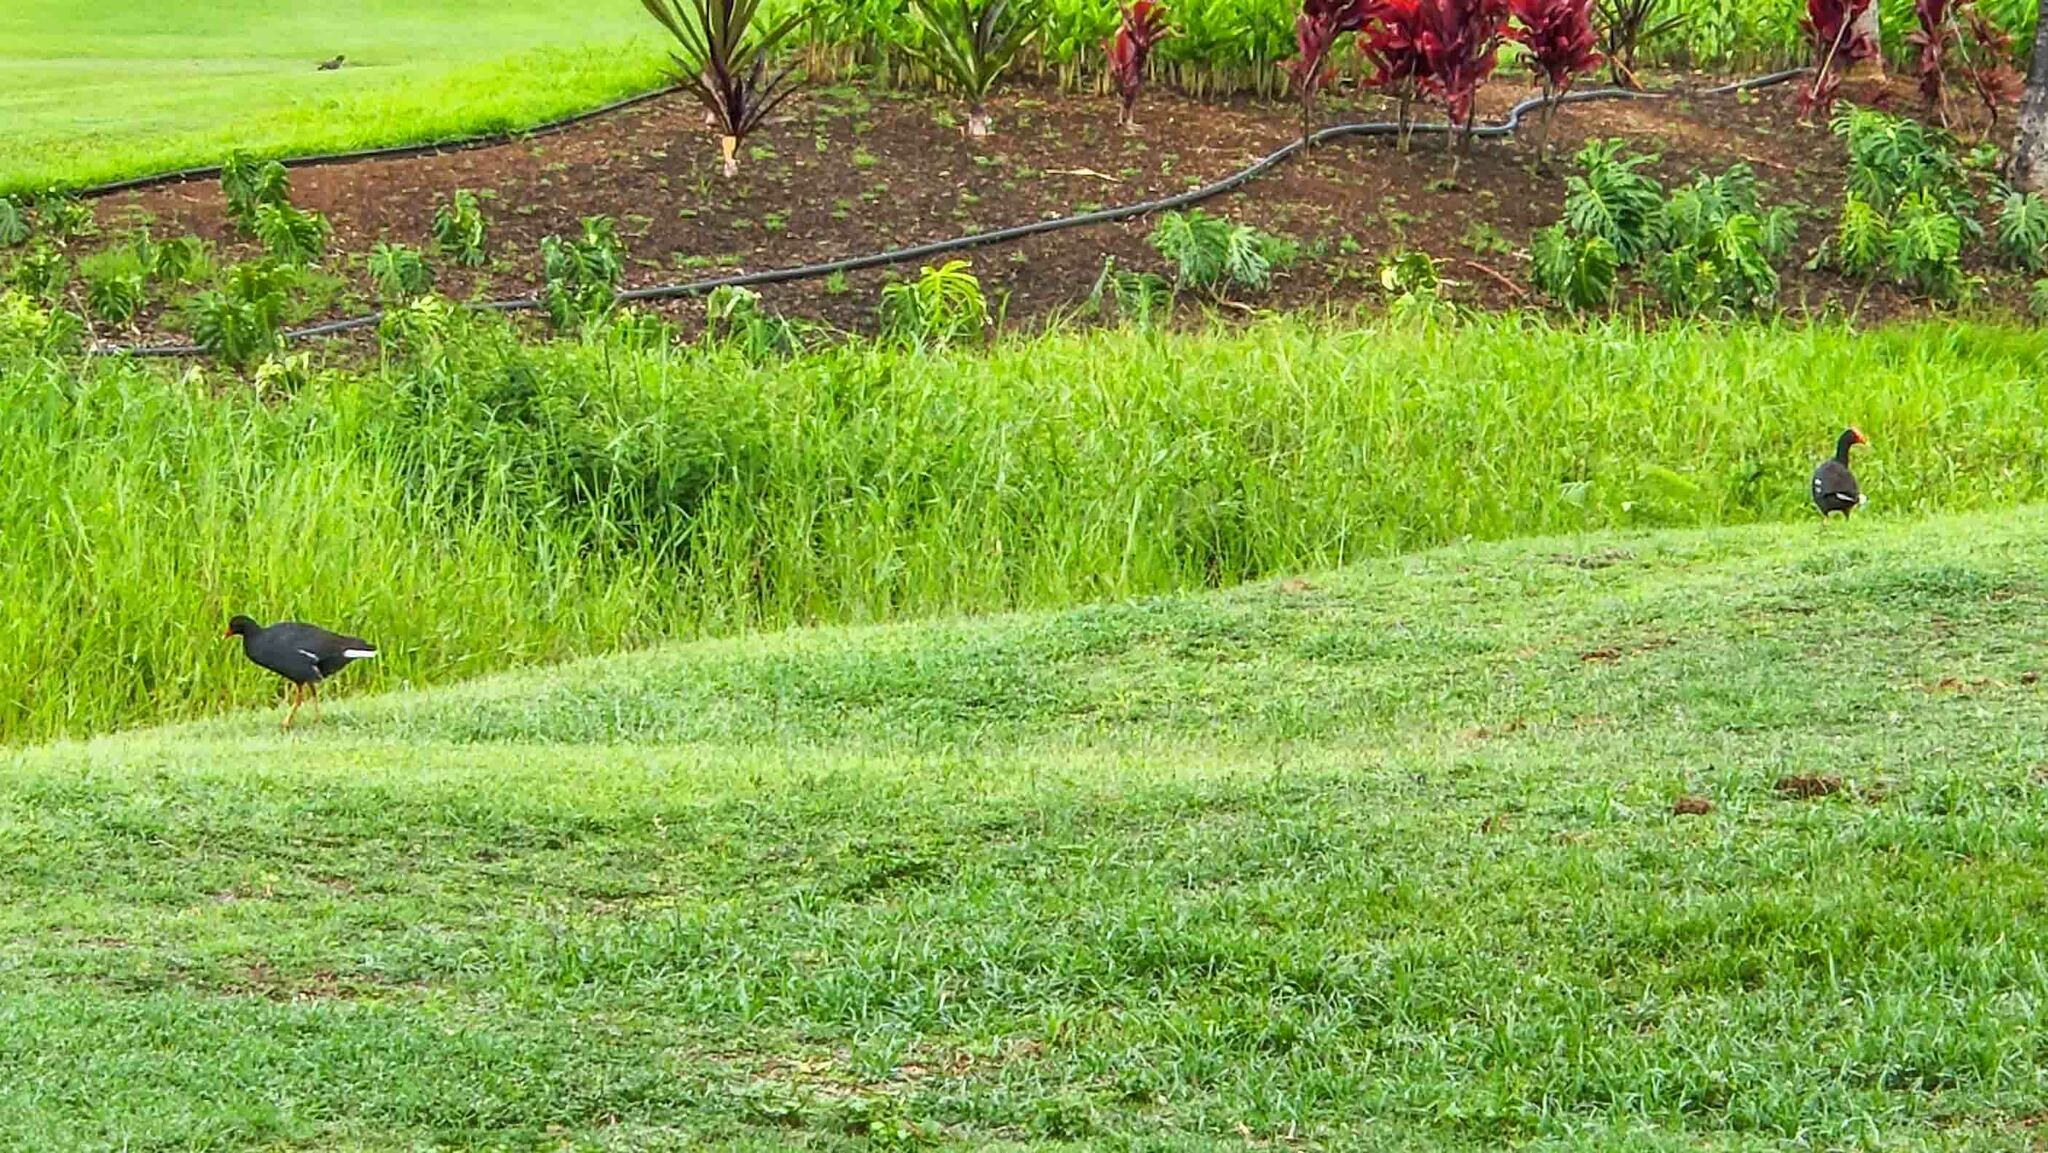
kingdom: Animalia
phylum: Chordata
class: Aves
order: Gruiformes
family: Rallidae
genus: Gallinula
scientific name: Gallinula chloropus
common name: Common moorhen
